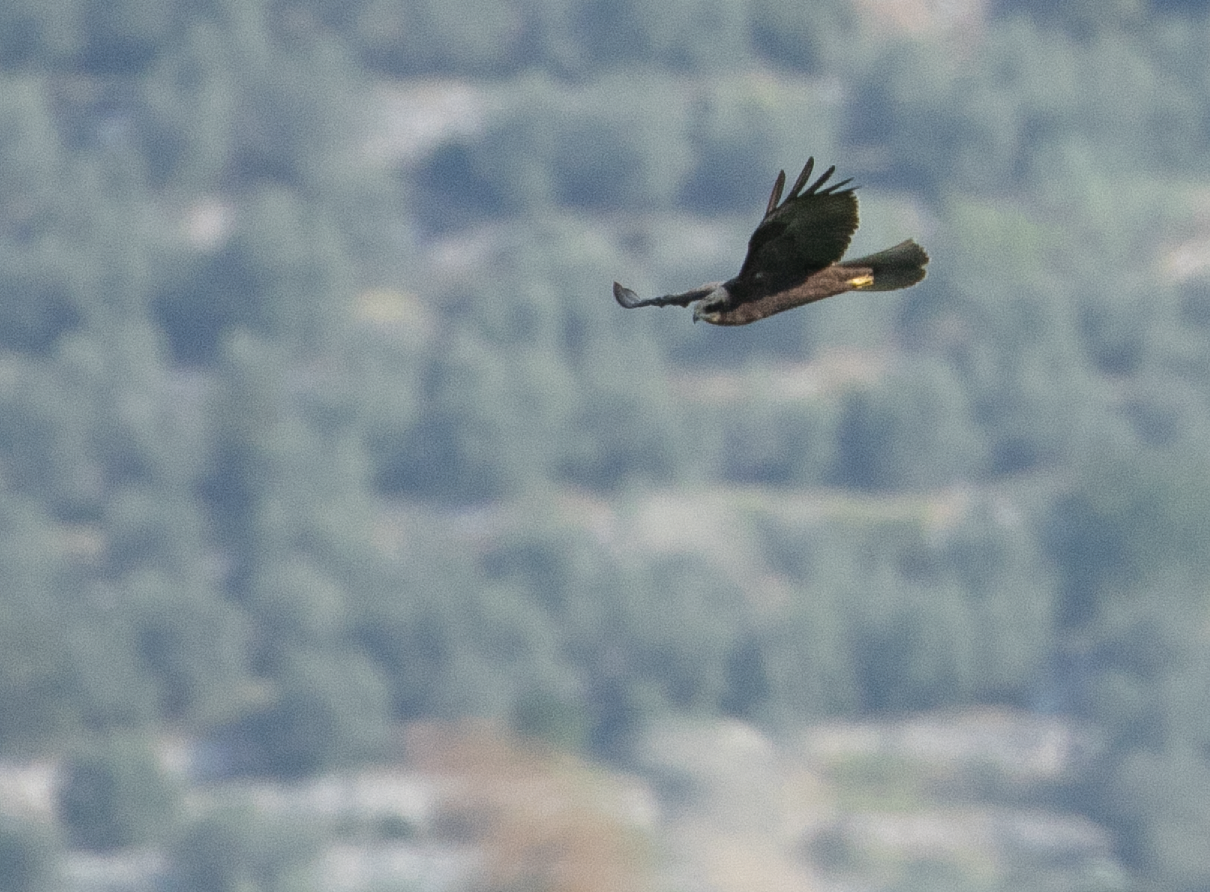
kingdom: Animalia
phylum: Chordata
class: Aves
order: Accipitriformes
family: Accipitridae
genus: Circus
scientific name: Circus aeruginosus
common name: Western marsh harrier
